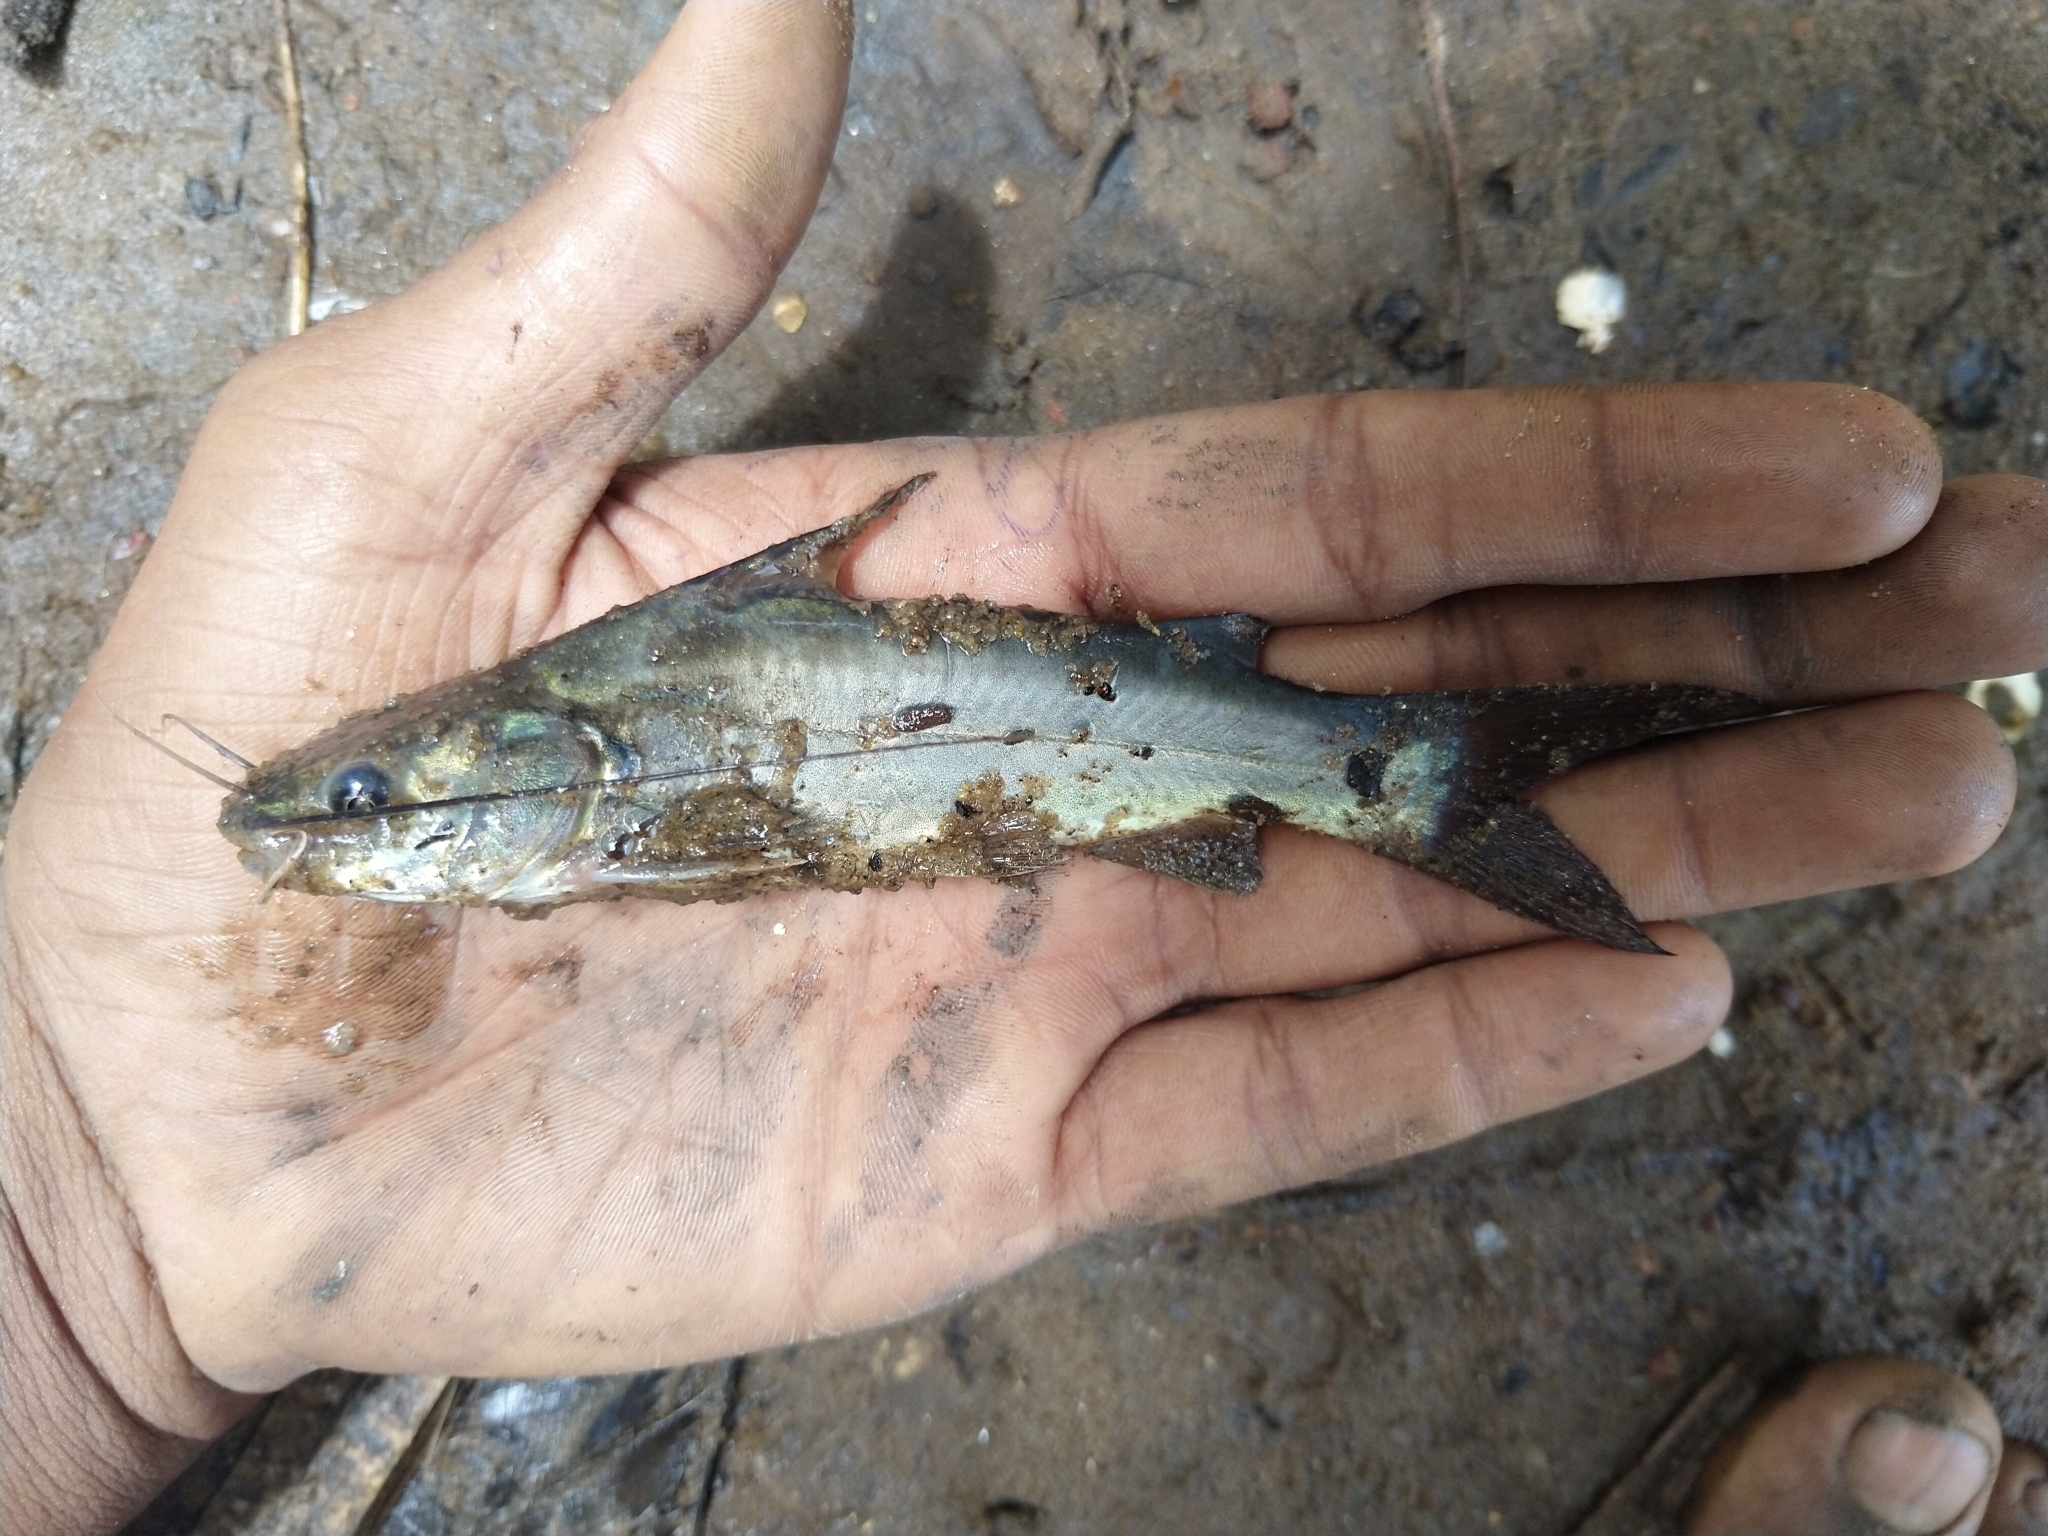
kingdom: Animalia
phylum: Chordata
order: Siluriformes
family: Bagridae
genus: Mystus
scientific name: Mystus gulio
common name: Long whiskers catfish
